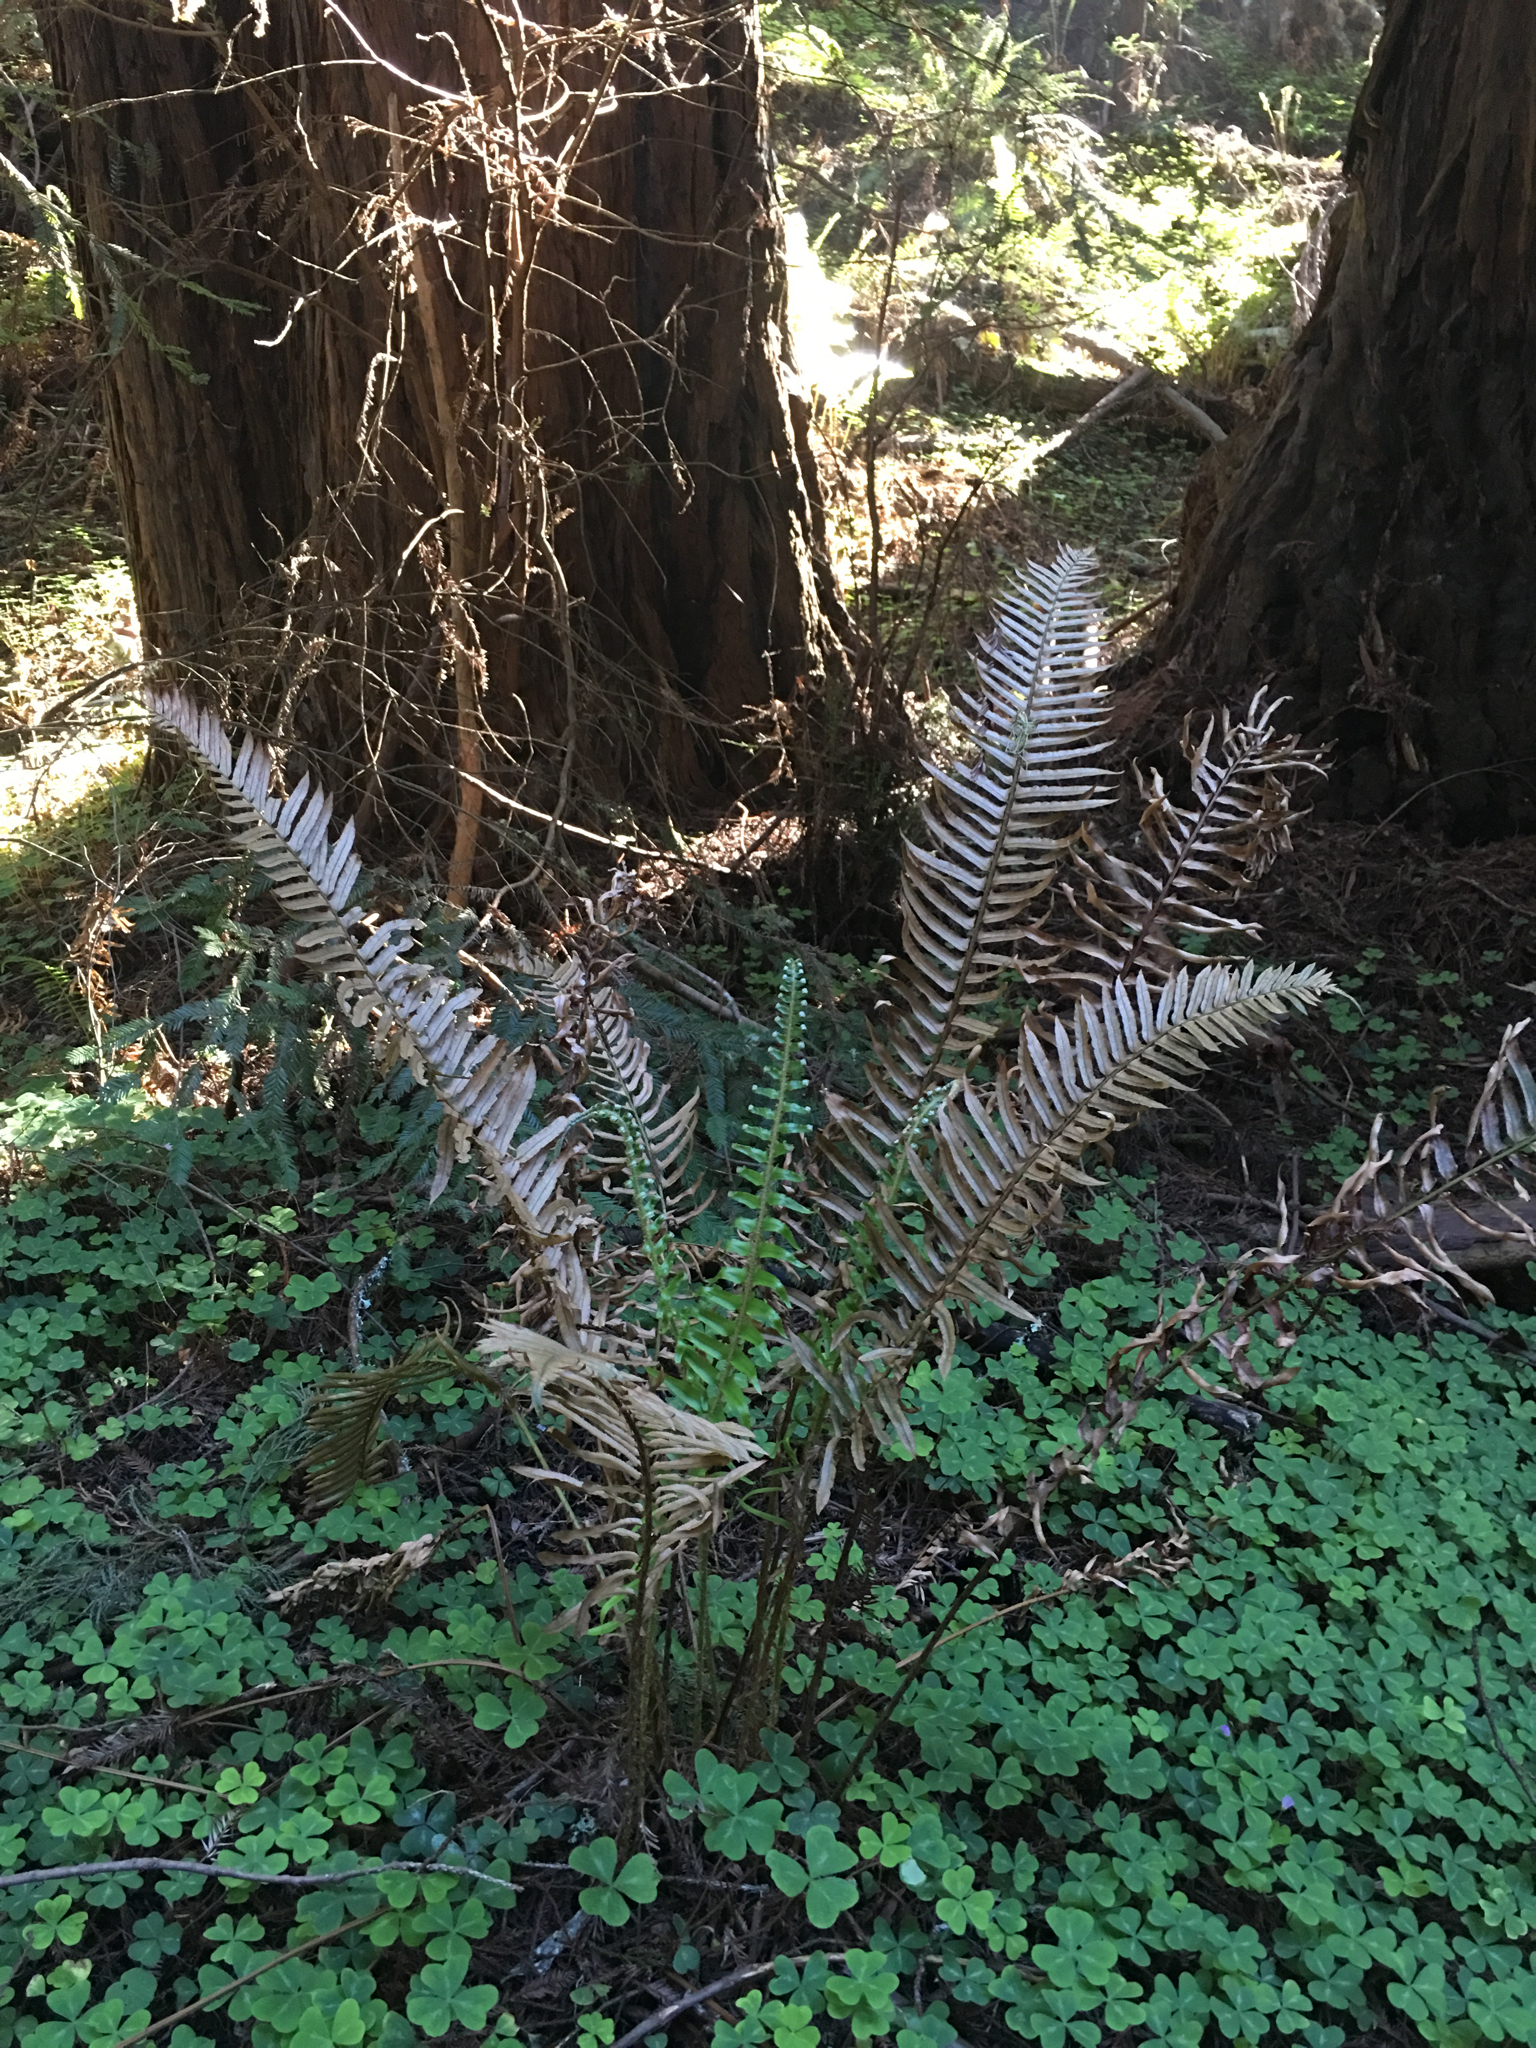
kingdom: Plantae
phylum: Tracheophyta
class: Polypodiopsida
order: Polypodiales
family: Dryopteridaceae
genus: Polystichum
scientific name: Polystichum munitum
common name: Western sword-fern
